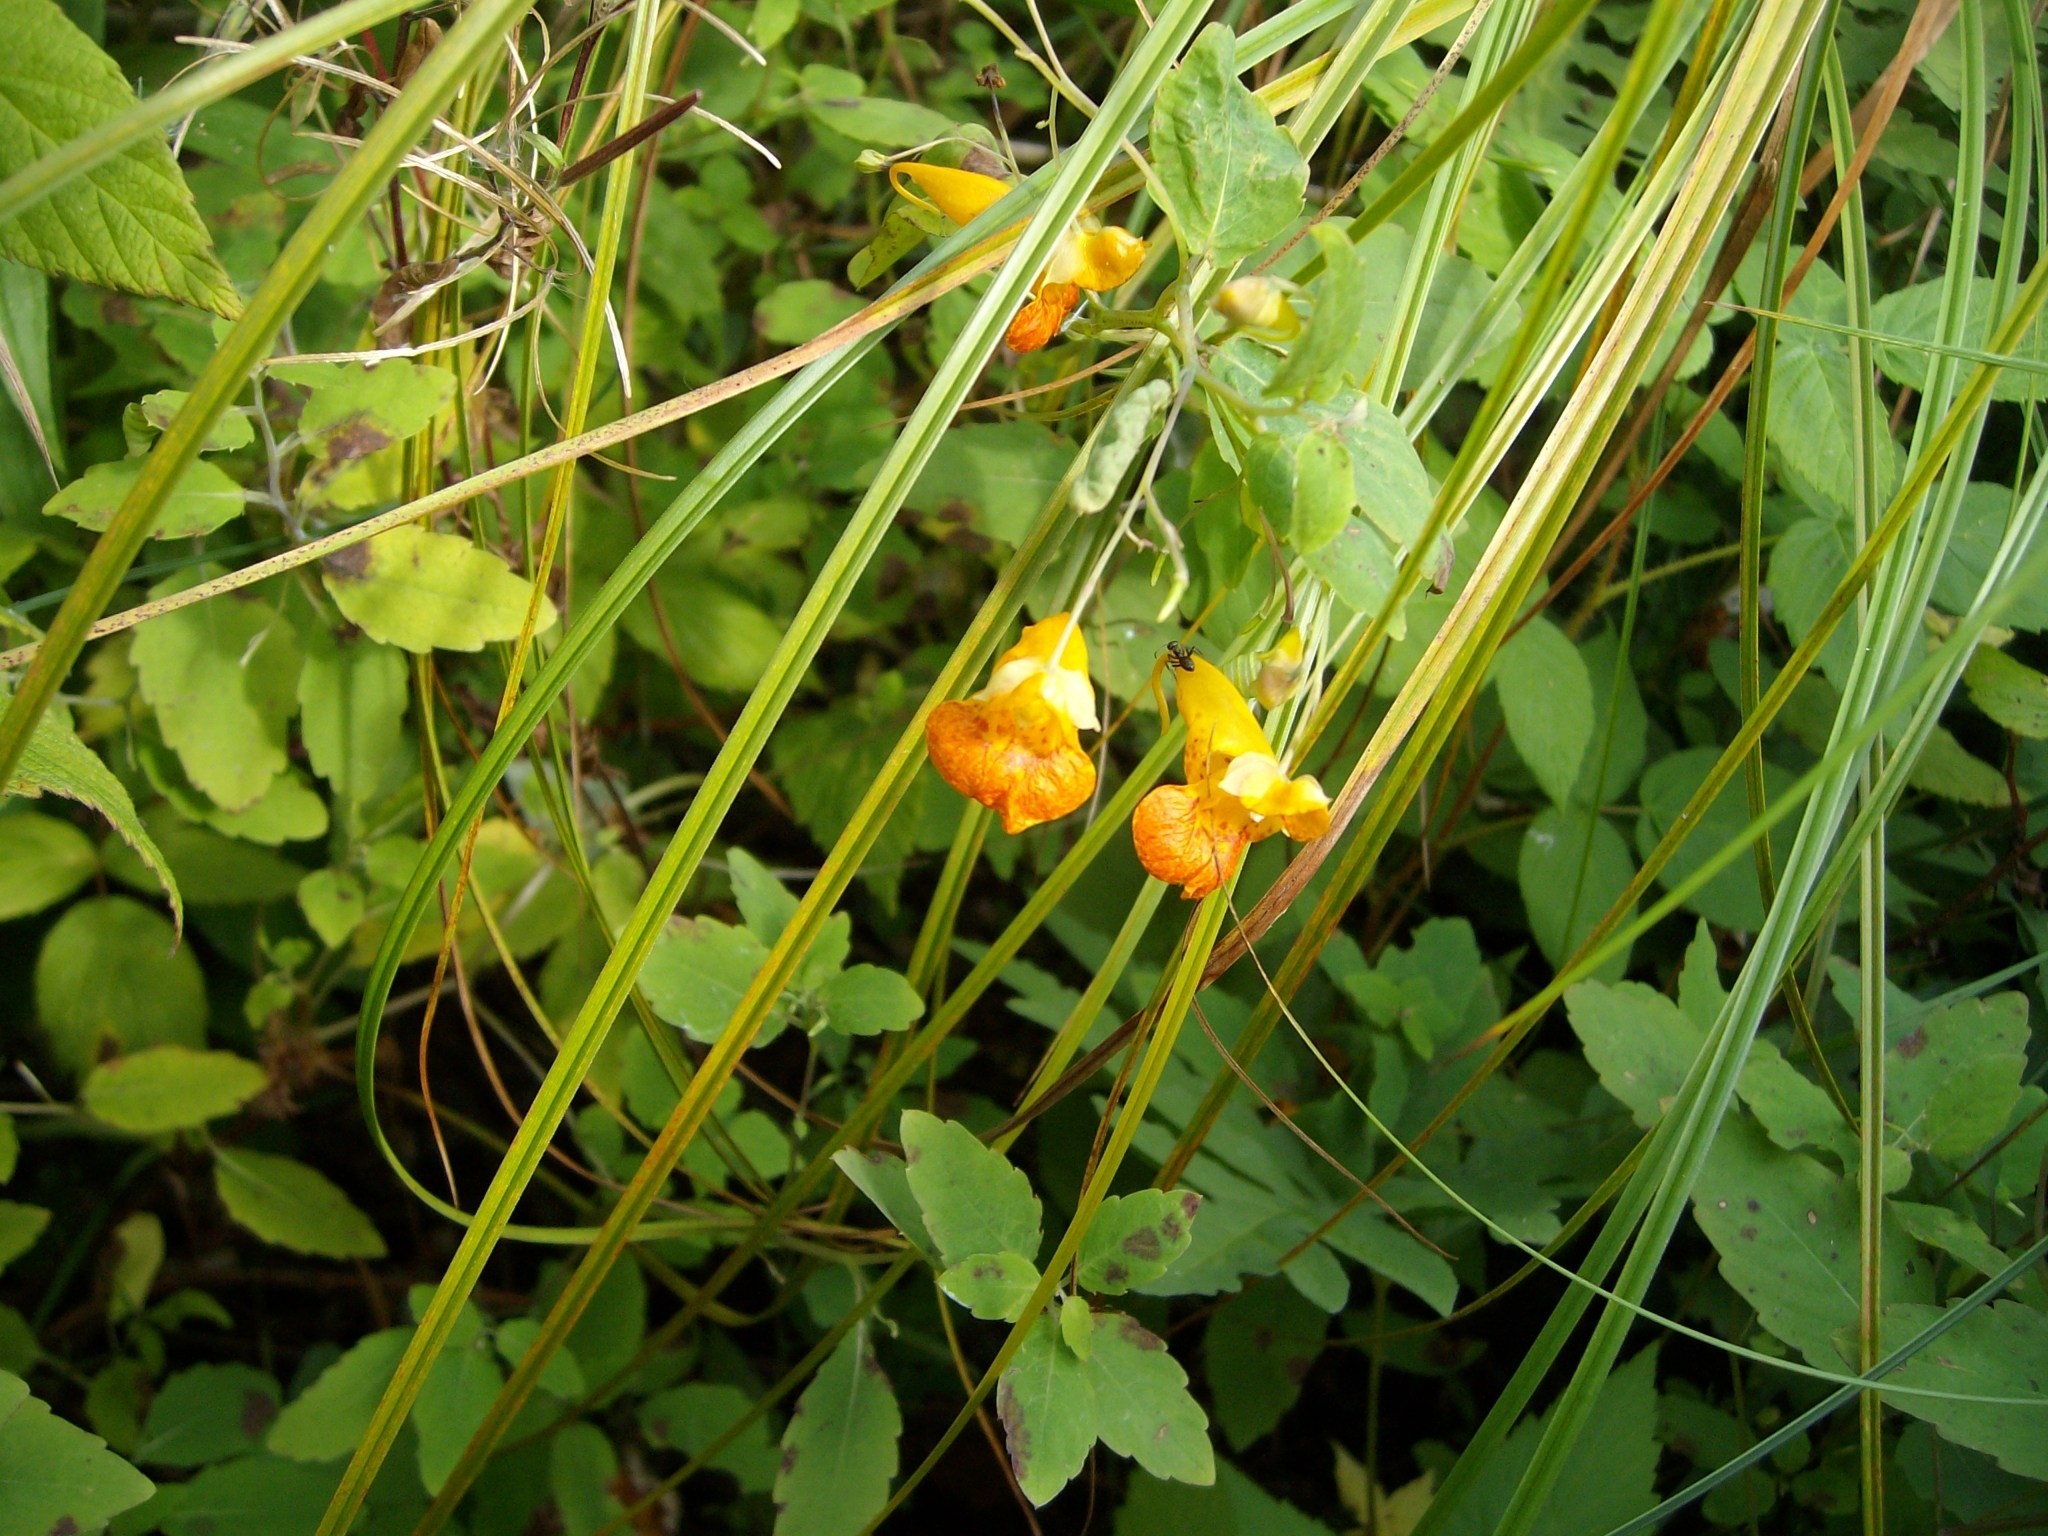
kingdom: Plantae
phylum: Tracheophyta
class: Magnoliopsida
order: Ericales
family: Balsaminaceae
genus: Impatiens
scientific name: Impatiens capensis
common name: Orange balsam
